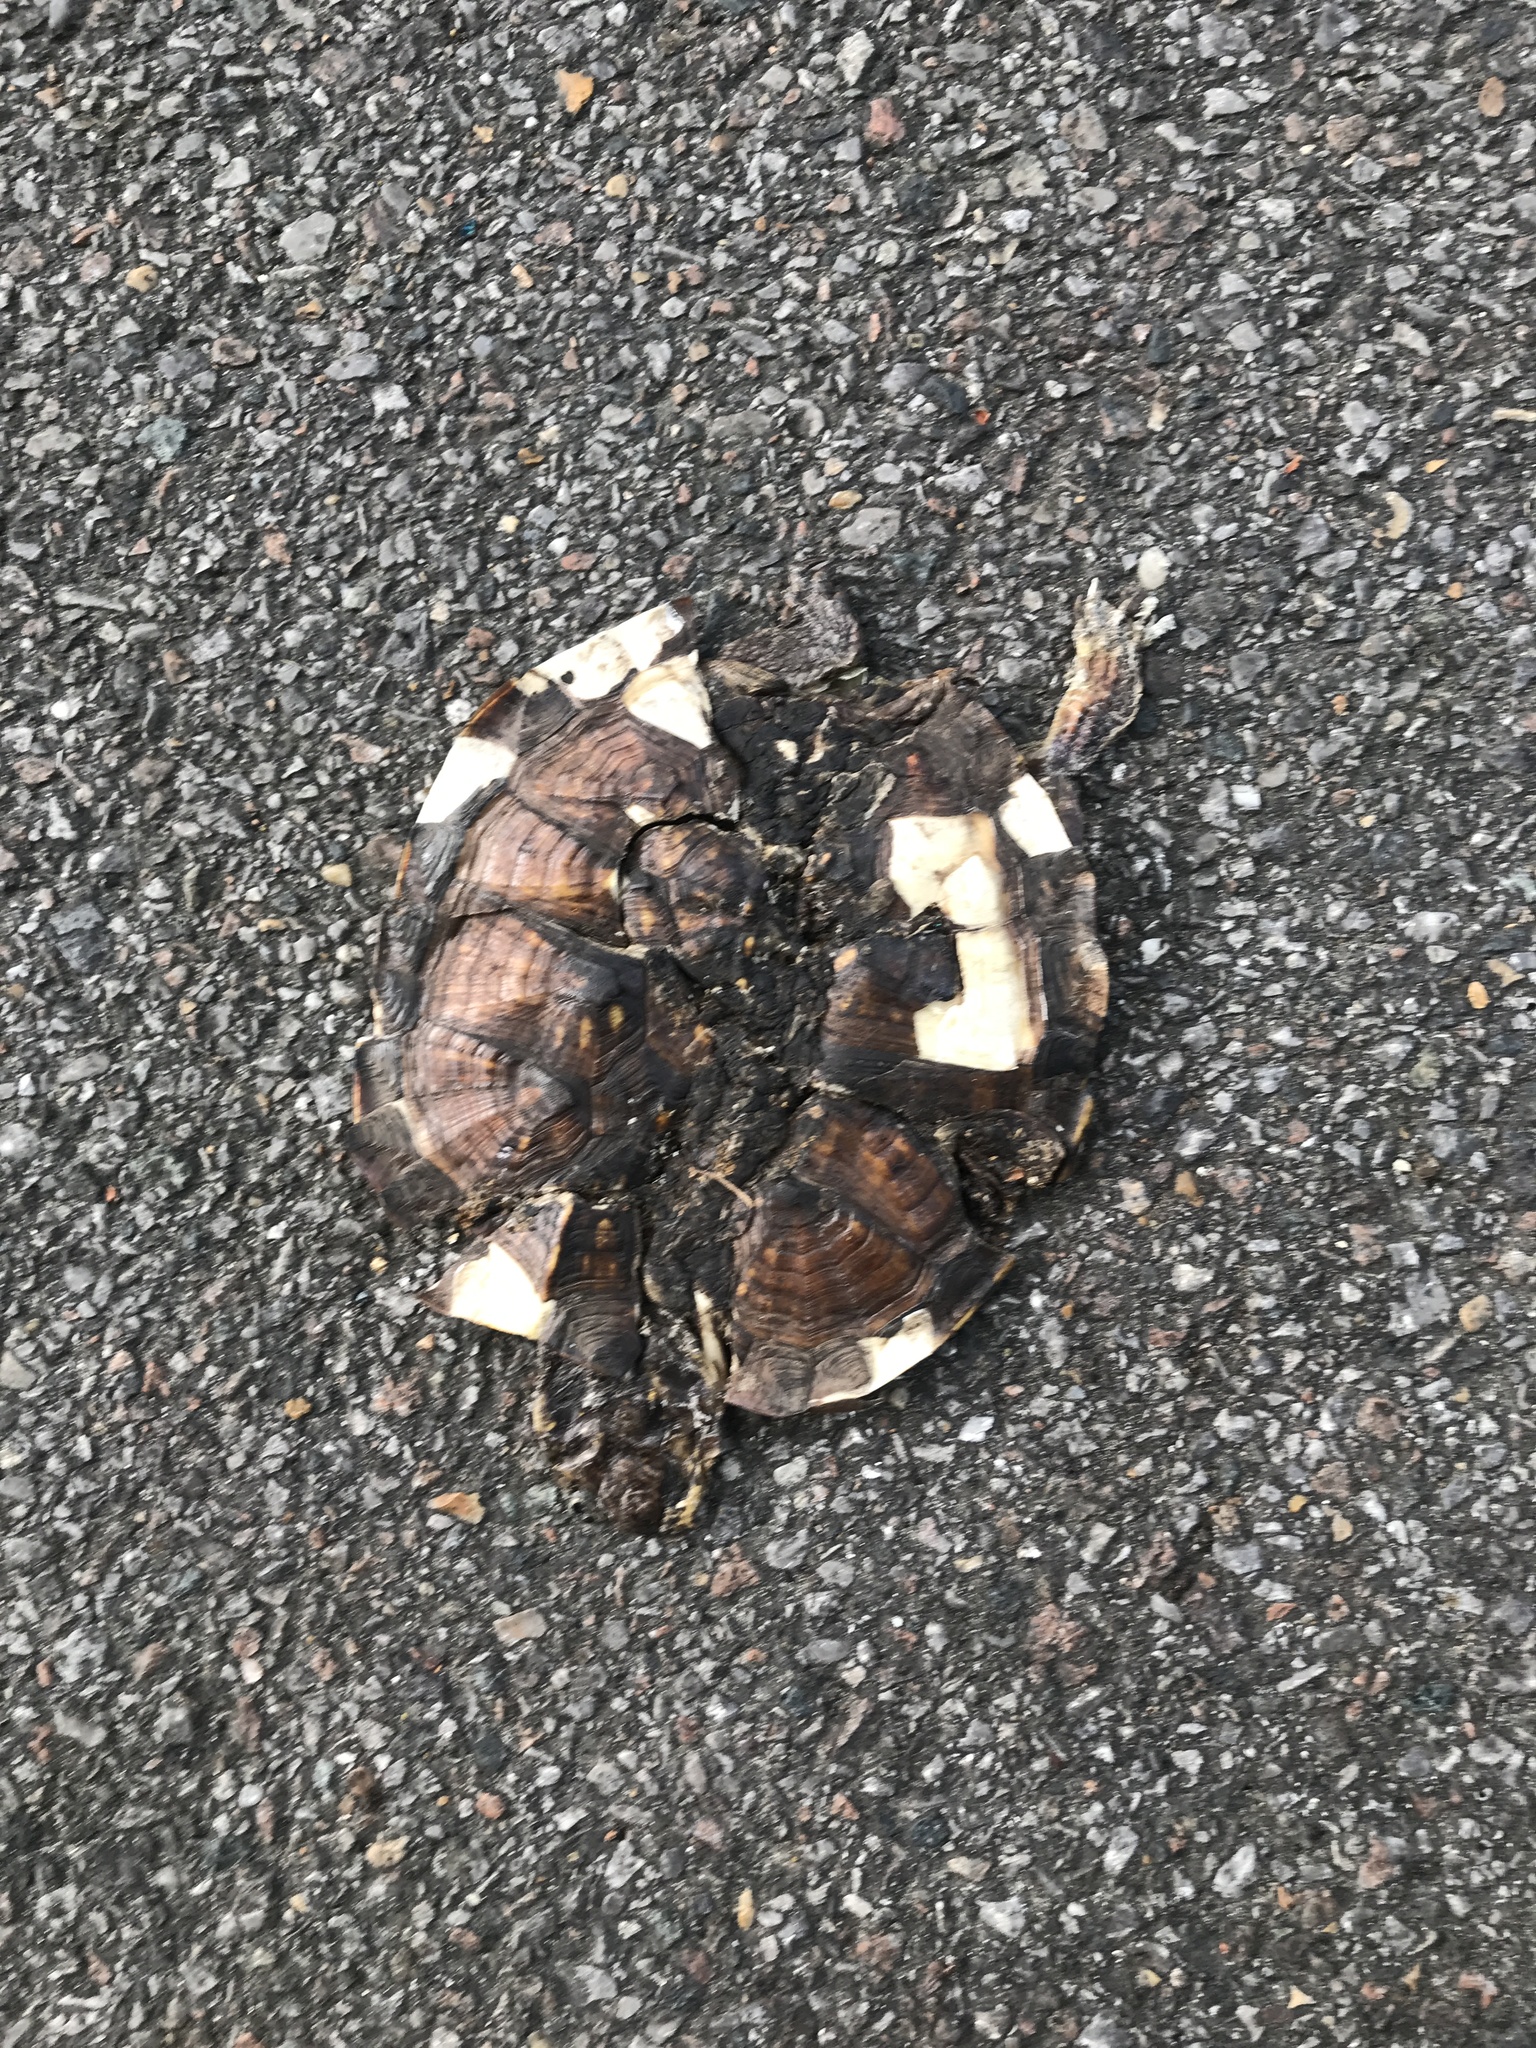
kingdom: Animalia
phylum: Chordata
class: Testudines
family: Emydidae
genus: Terrapene
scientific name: Terrapene carolina
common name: Common box turtle
